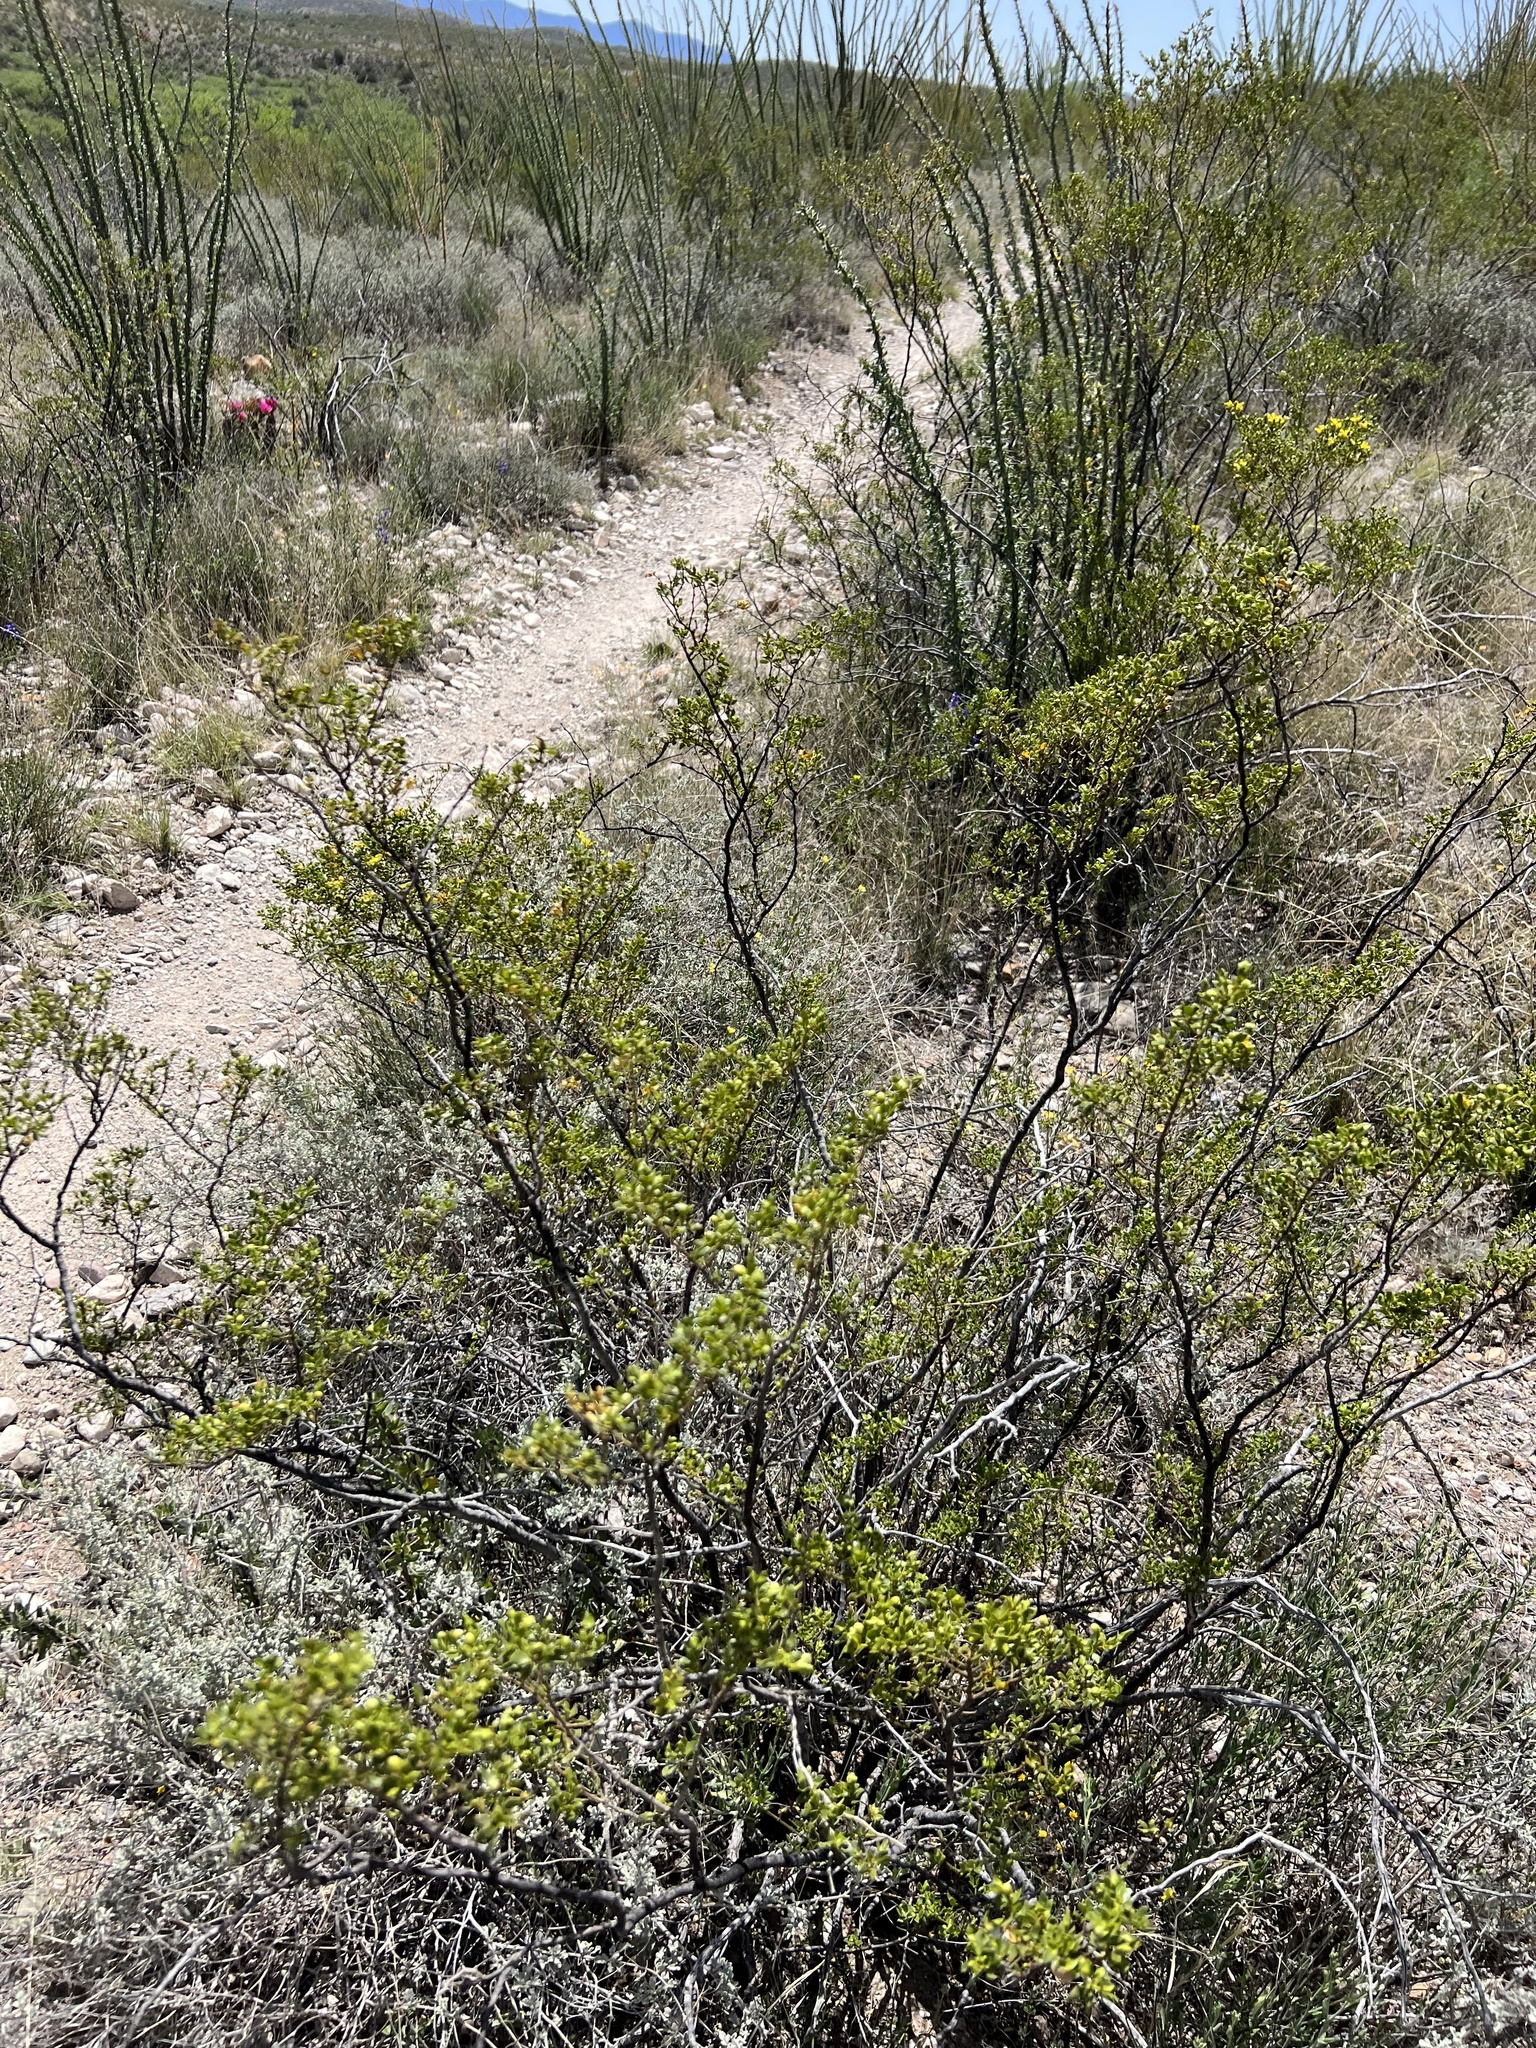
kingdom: Plantae
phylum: Tracheophyta
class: Magnoliopsida
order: Zygophyllales
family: Zygophyllaceae
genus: Larrea
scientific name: Larrea tridentata
